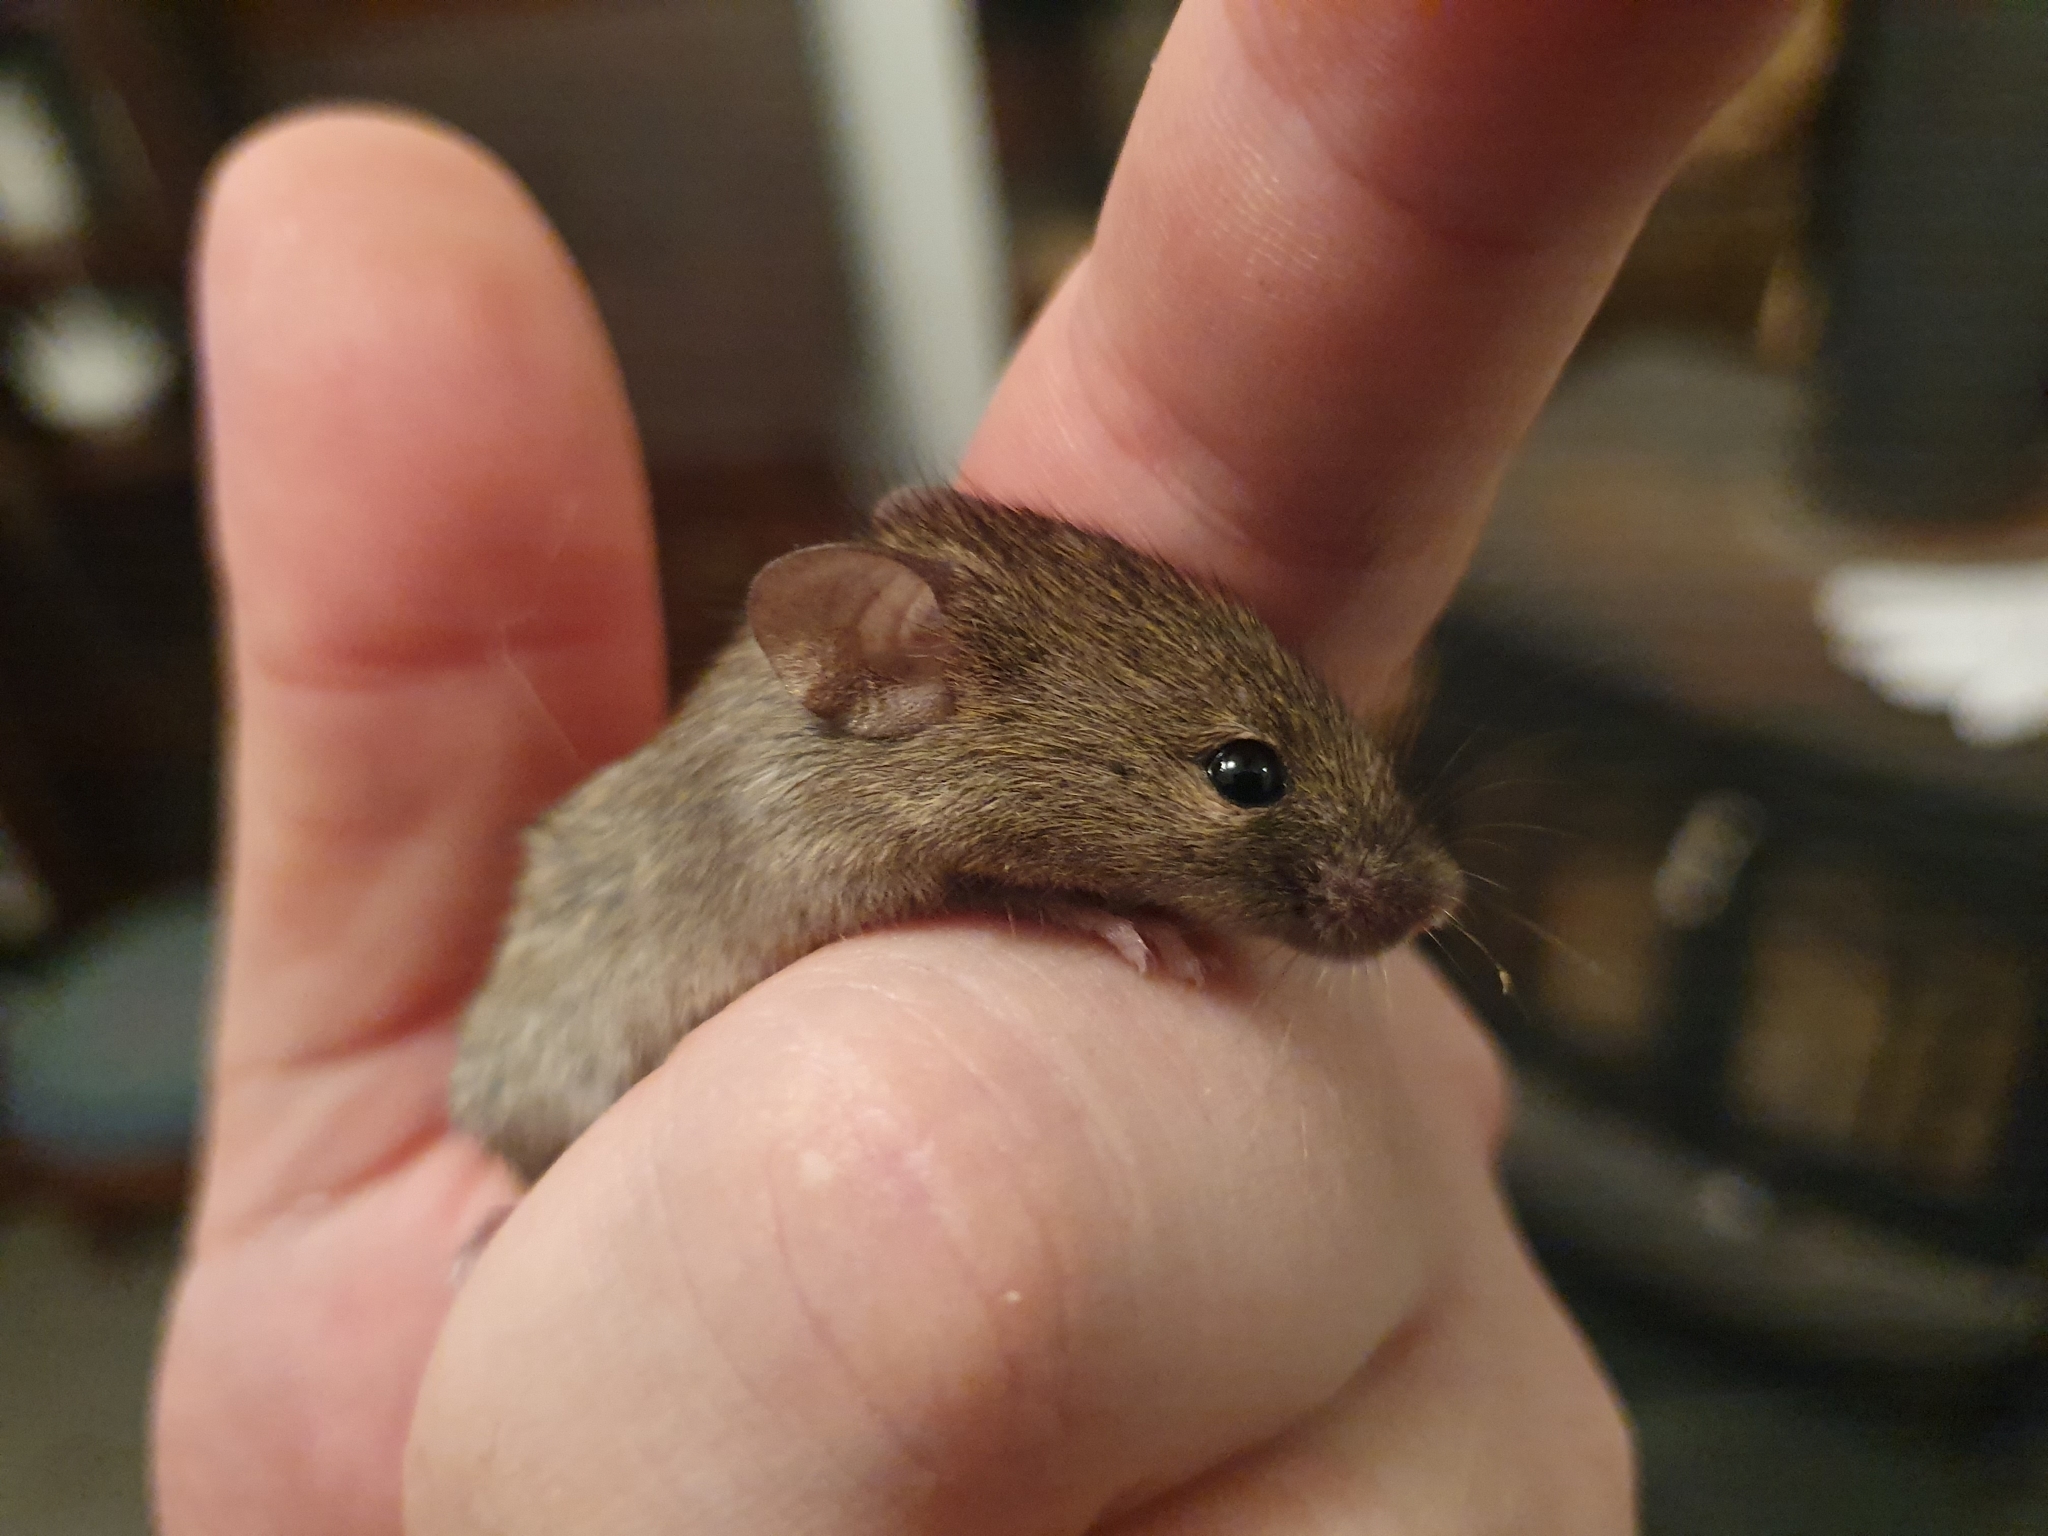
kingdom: Animalia
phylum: Chordata
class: Mammalia
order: Rodentia
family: Muridae
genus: Mus
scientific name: Mus musculus
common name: House mouse
